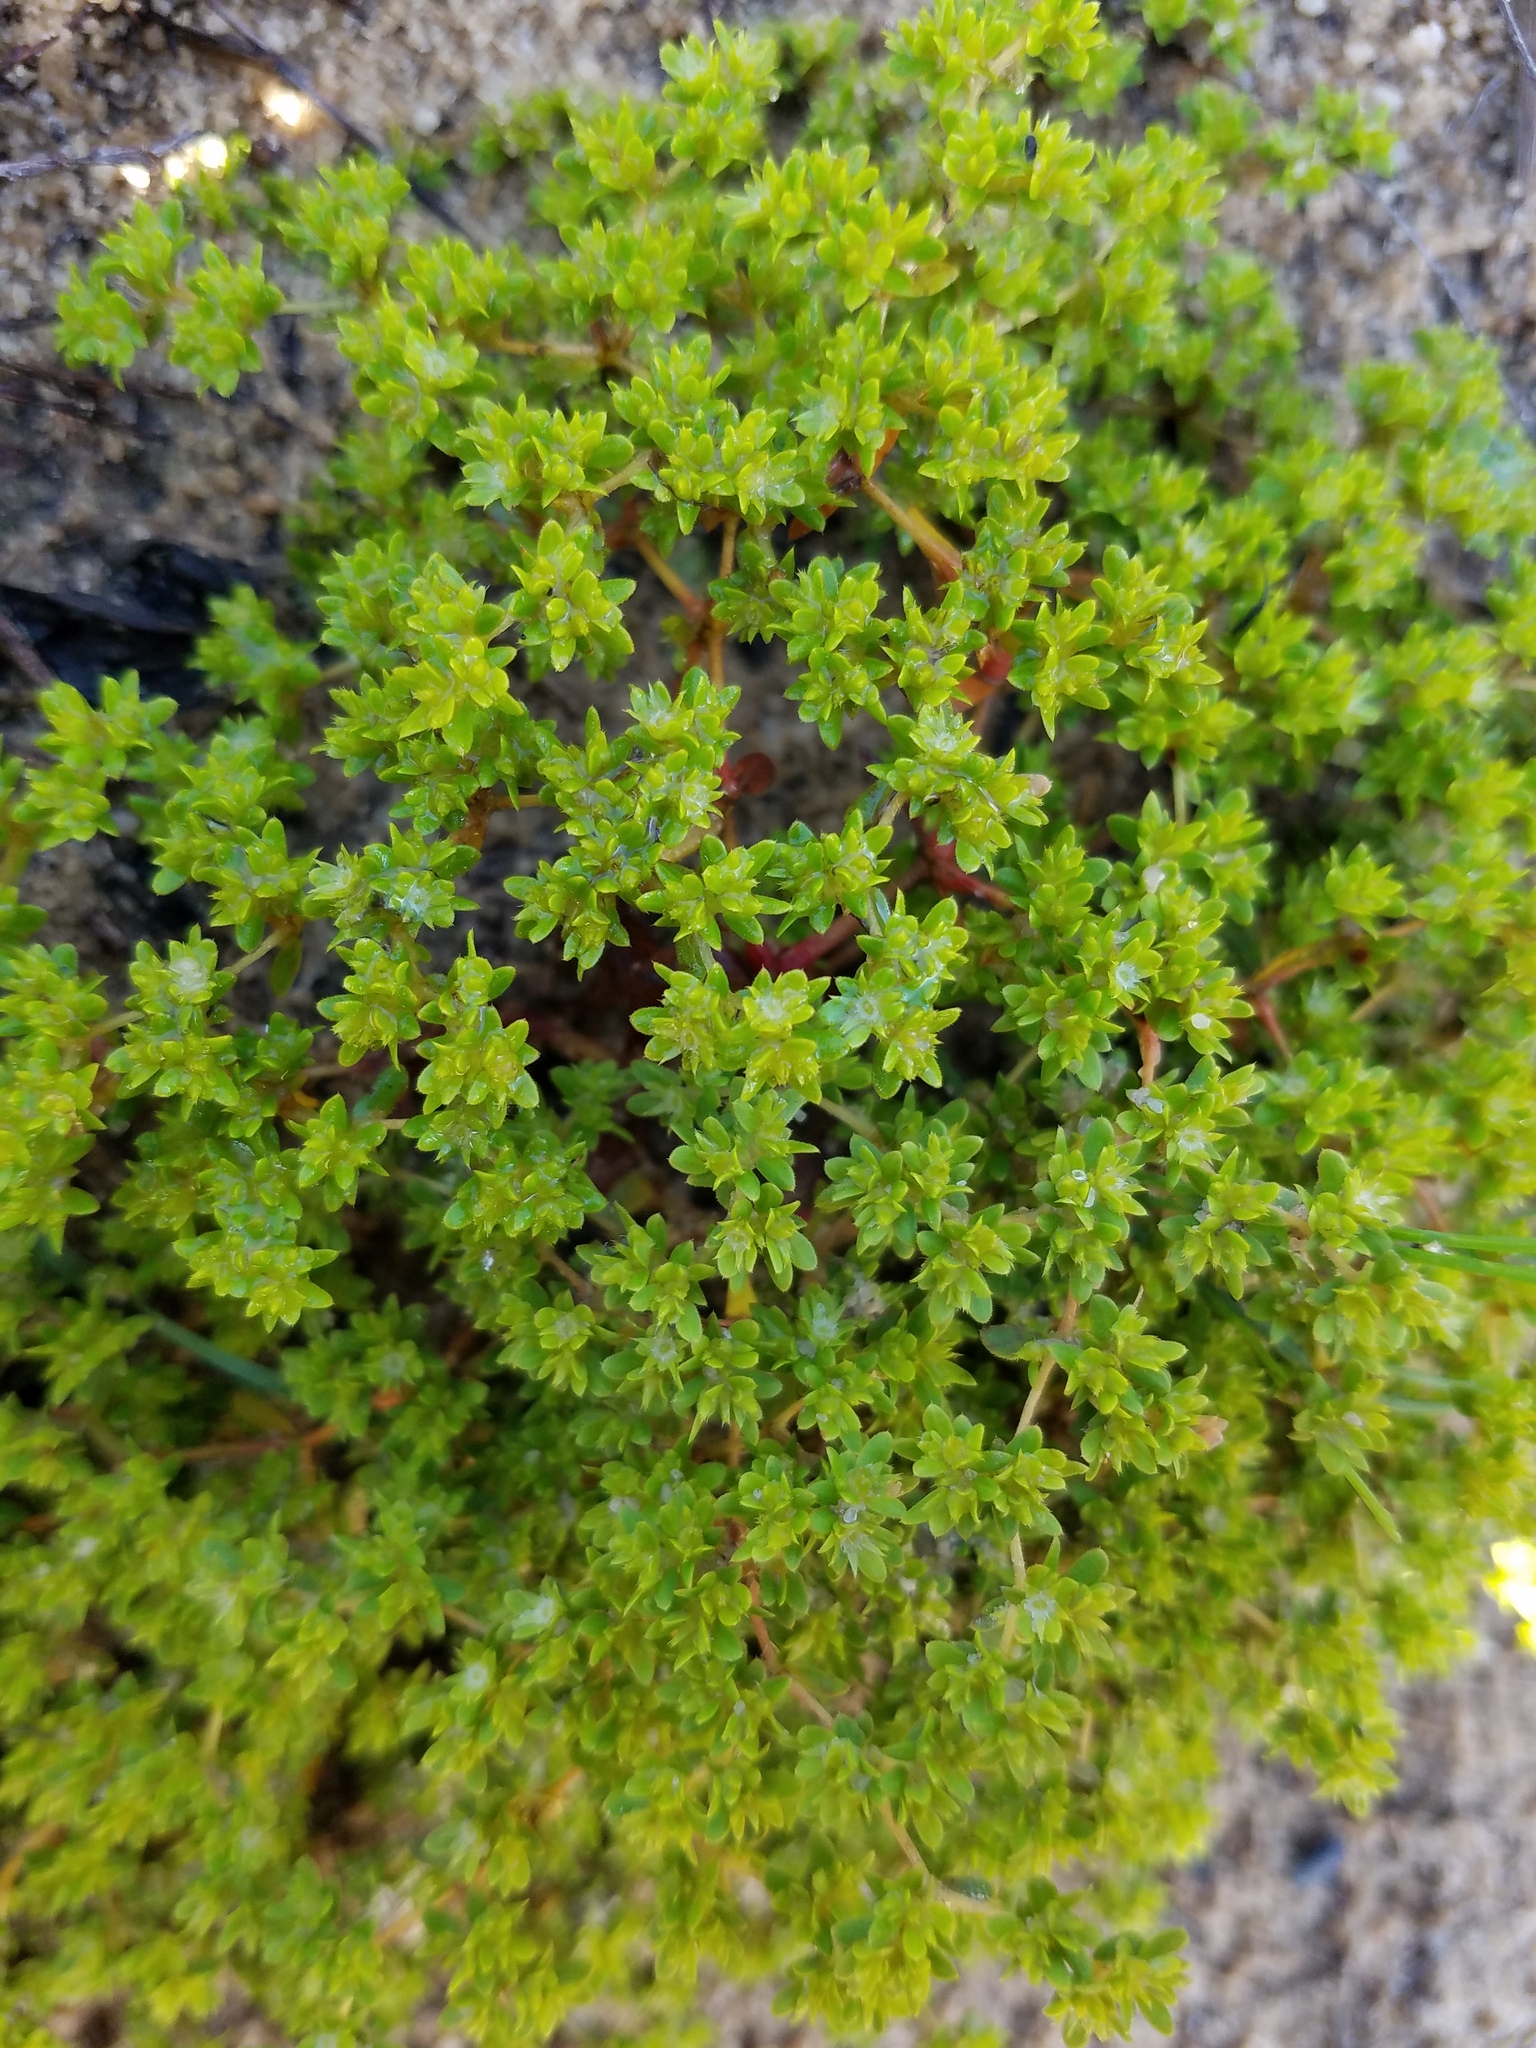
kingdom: Plantae
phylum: Tracheophyta
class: Magnoliopsida
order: Caryophyllales
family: Caryophyllaceae
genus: Paronychia
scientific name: Paronychia herniarioides
